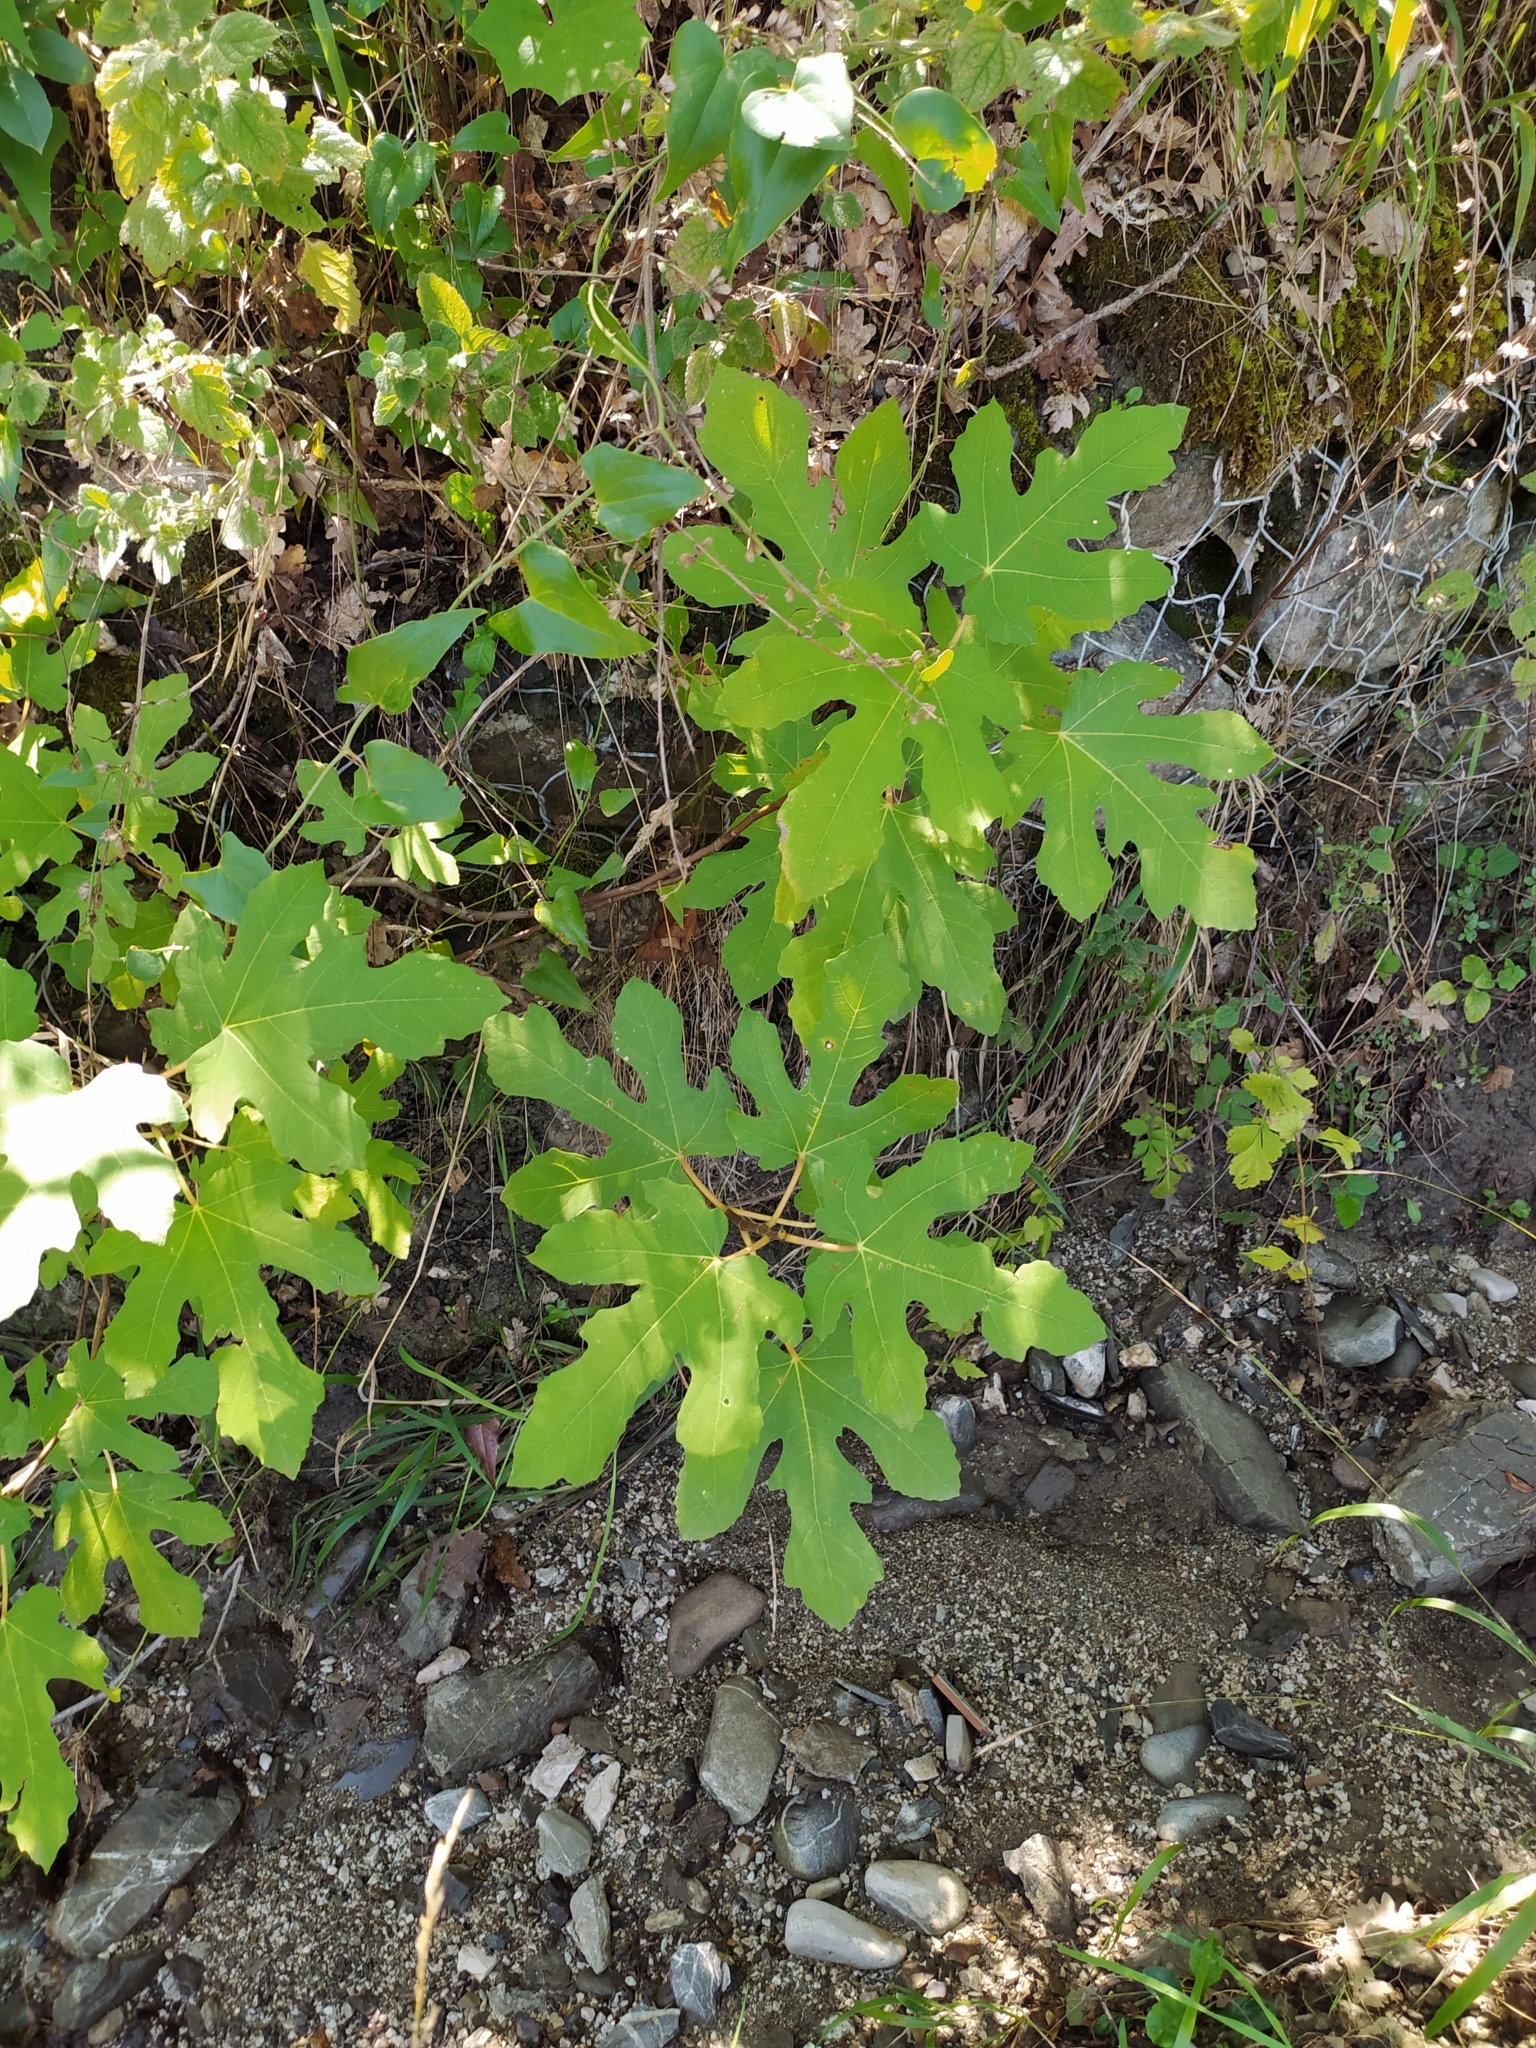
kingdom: Plantae
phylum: Tracheophyta
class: Magnoliopsida
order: Rosales
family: Moraceae
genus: Ficus
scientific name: Ficus carica
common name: Fig
